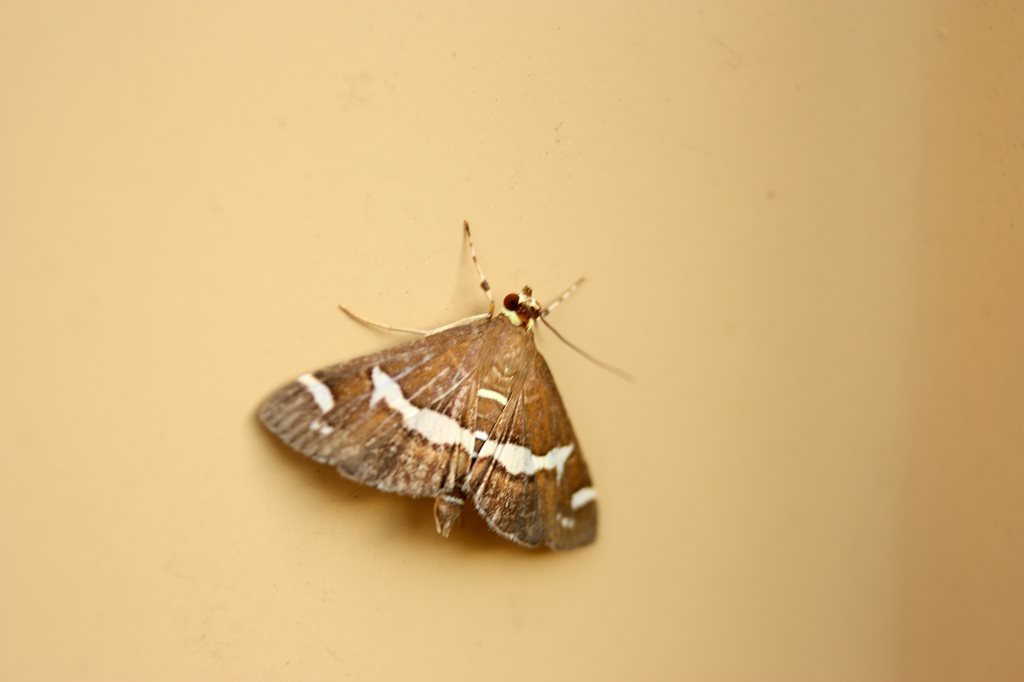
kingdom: Animalia
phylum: Arthropoda
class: Insecta
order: Lepidoptera
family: Crambidae
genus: Spoladea
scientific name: Spoladea recurvalis
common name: Beet webworm moth
